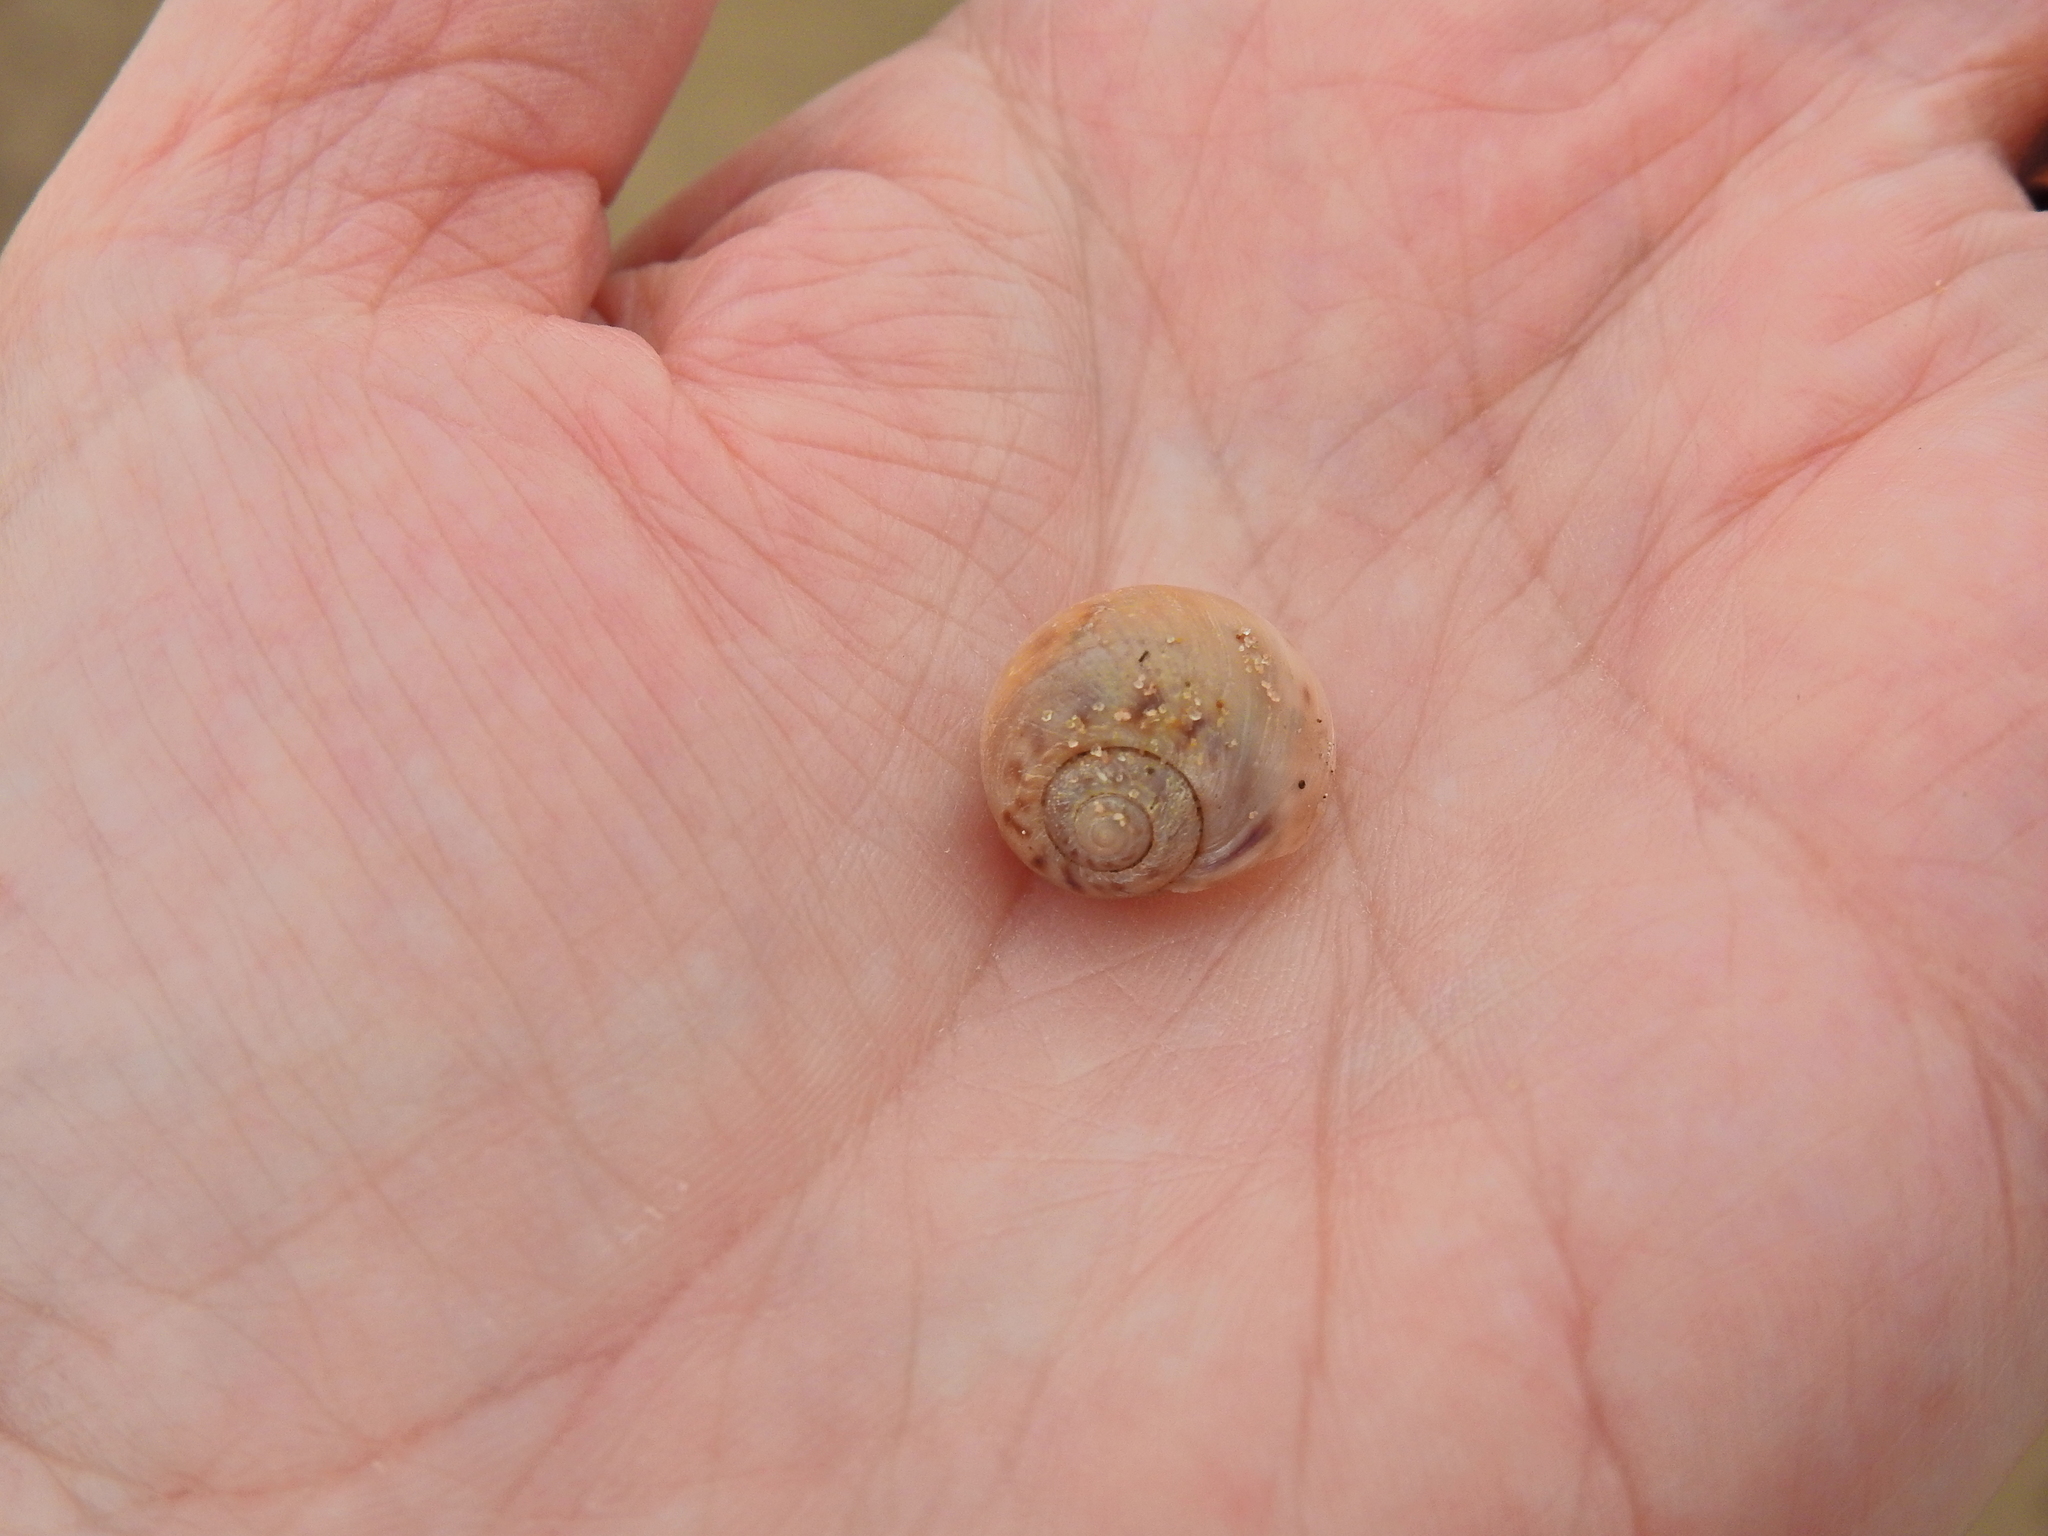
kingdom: Animalia
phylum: Mollusca
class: Gastropoda
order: Littorinimorpha
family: Naticidae
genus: Euspira
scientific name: Euspira nitida
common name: Alder's necklace shell
